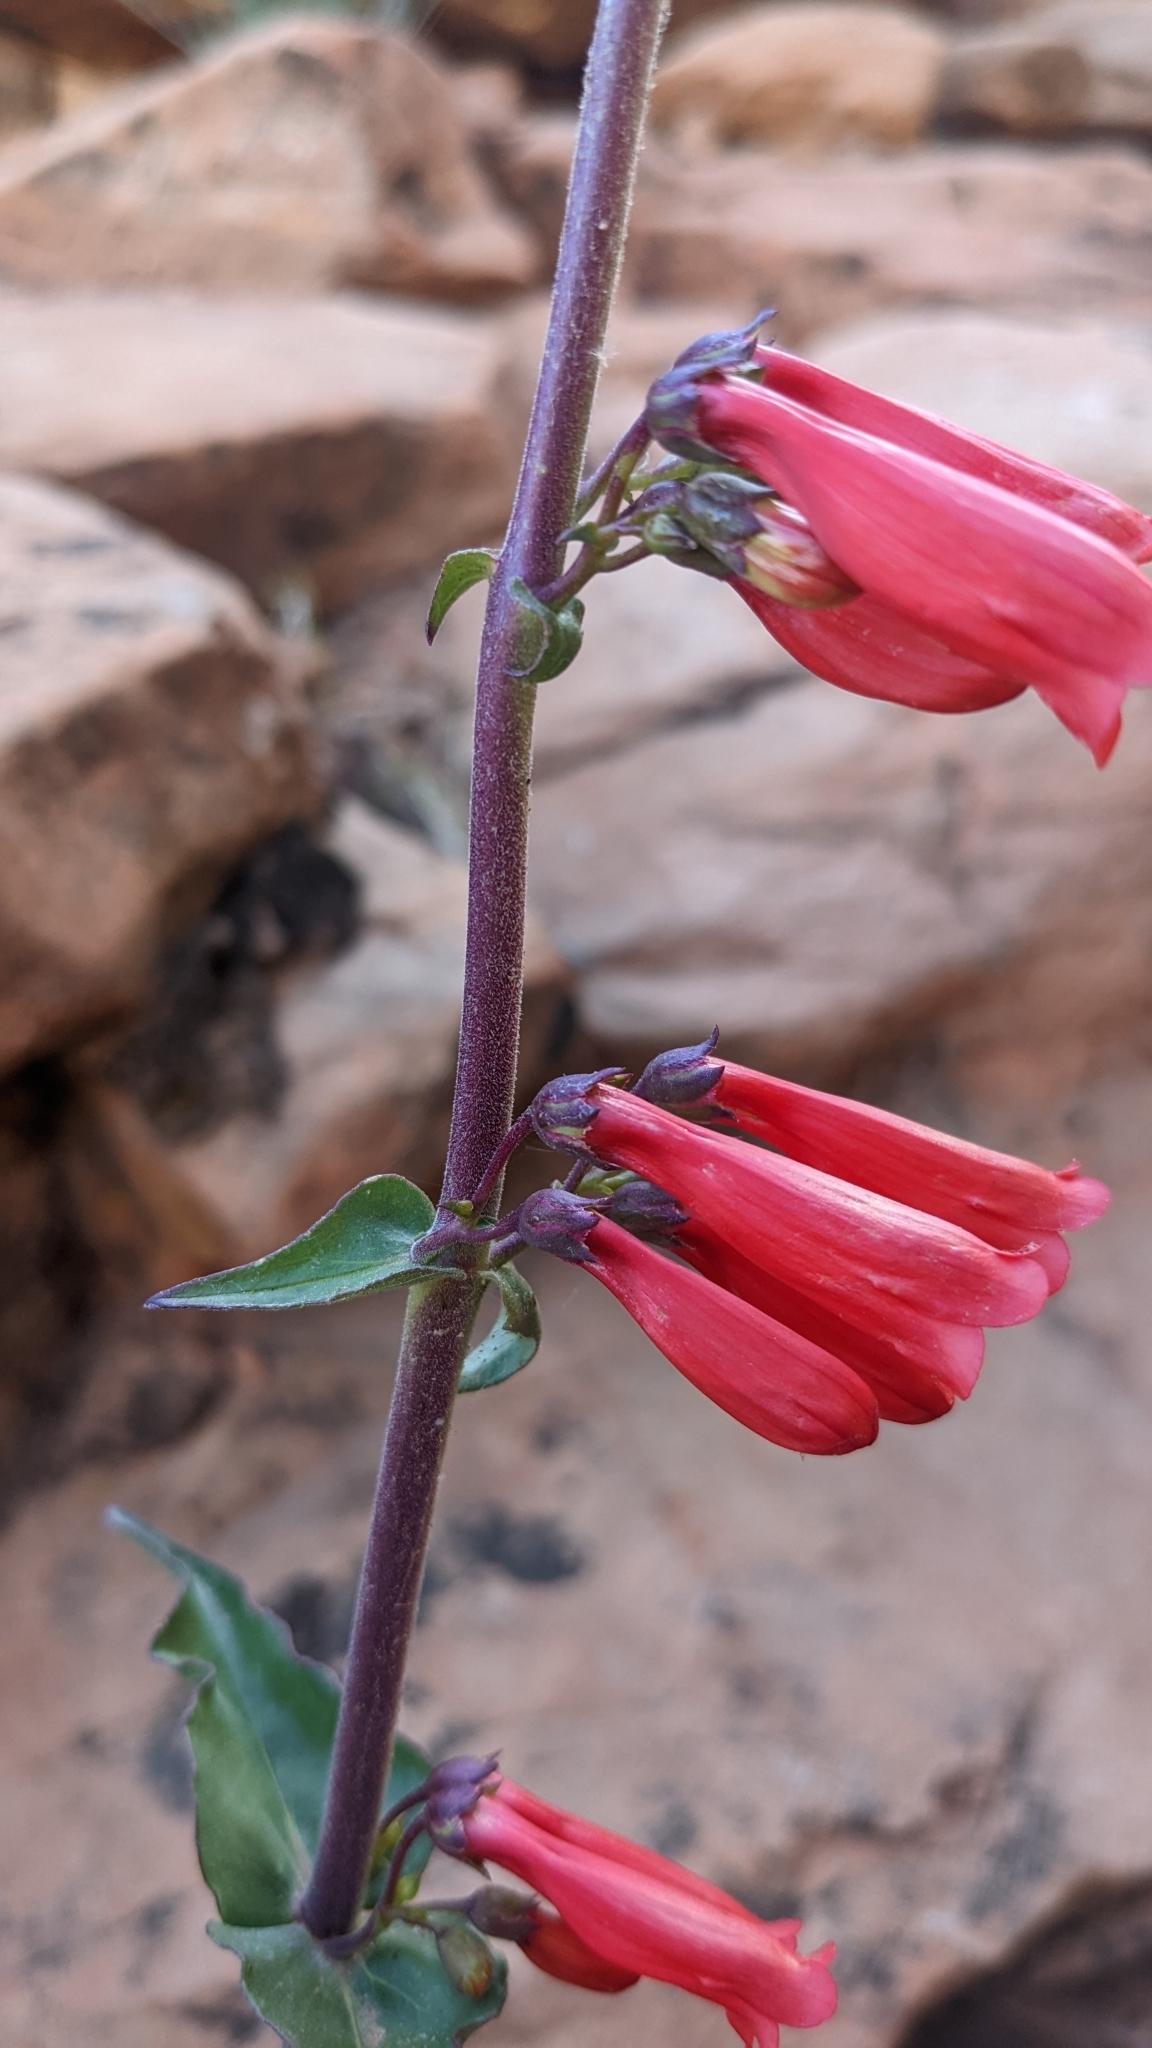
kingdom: Plantae
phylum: Tracheophyta
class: Magnoliopsida
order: Lamiales
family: Plantaginaceae
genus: Penstemon
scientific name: Penstemon eatonii
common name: Eaton's penstemon
